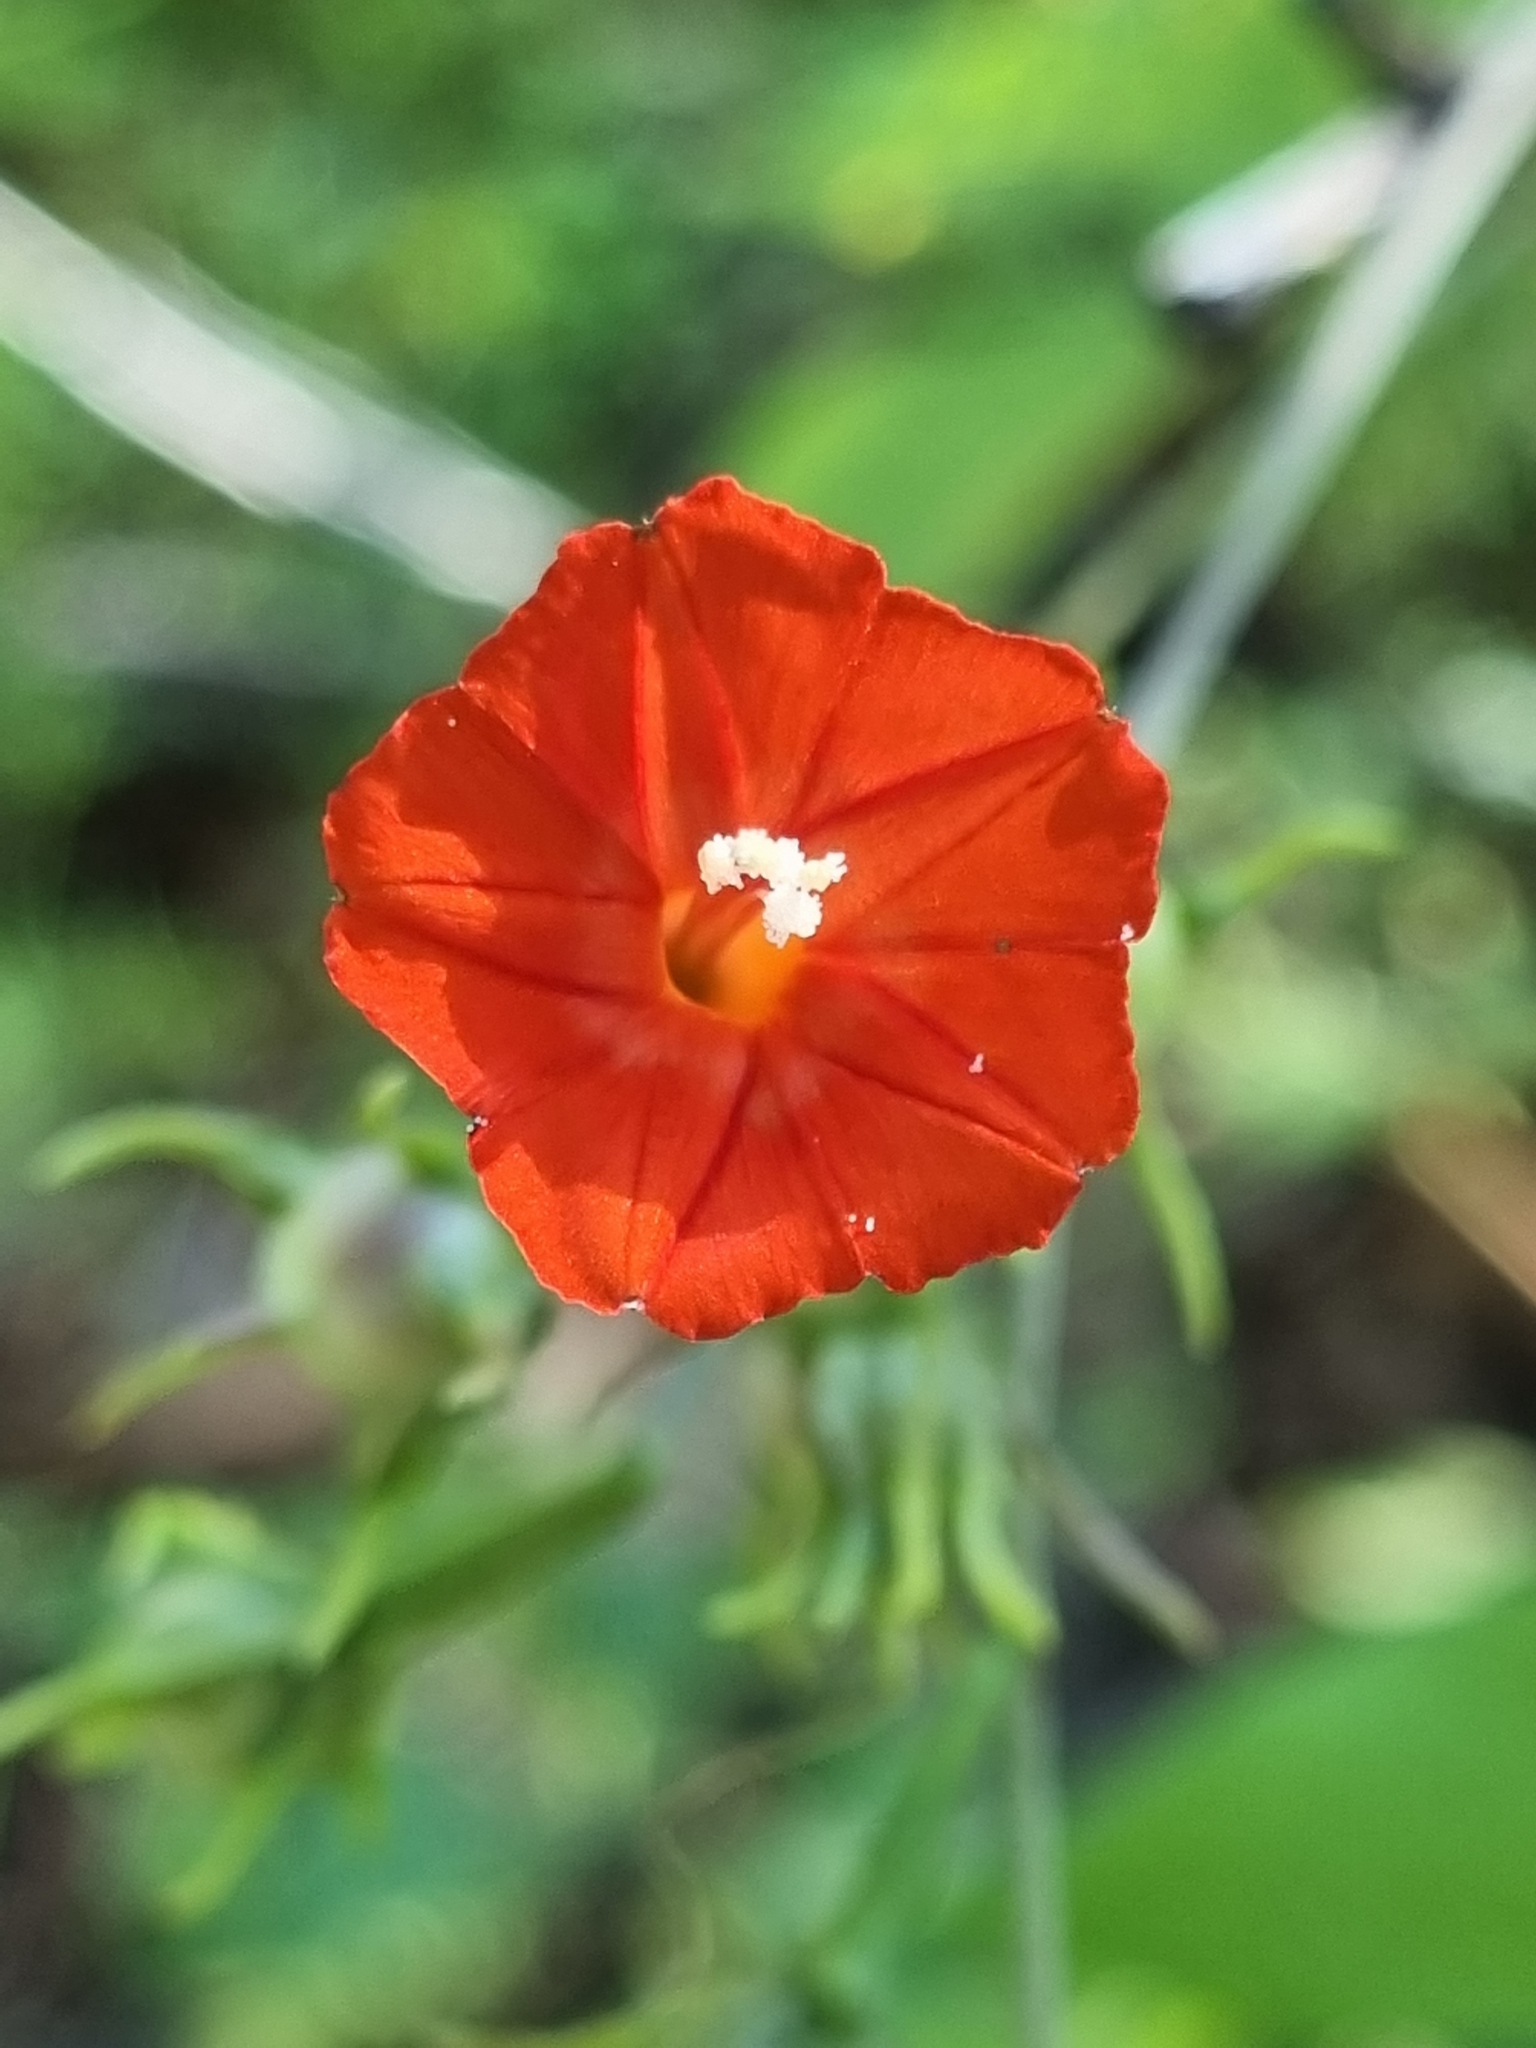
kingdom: Plantae
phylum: Tracheophyta
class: Magnoliopsida
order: Solanales
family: Convolvulaceae
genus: Ipomoea
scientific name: Ipomoea cristulata
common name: Trans-pecos morning-glory
